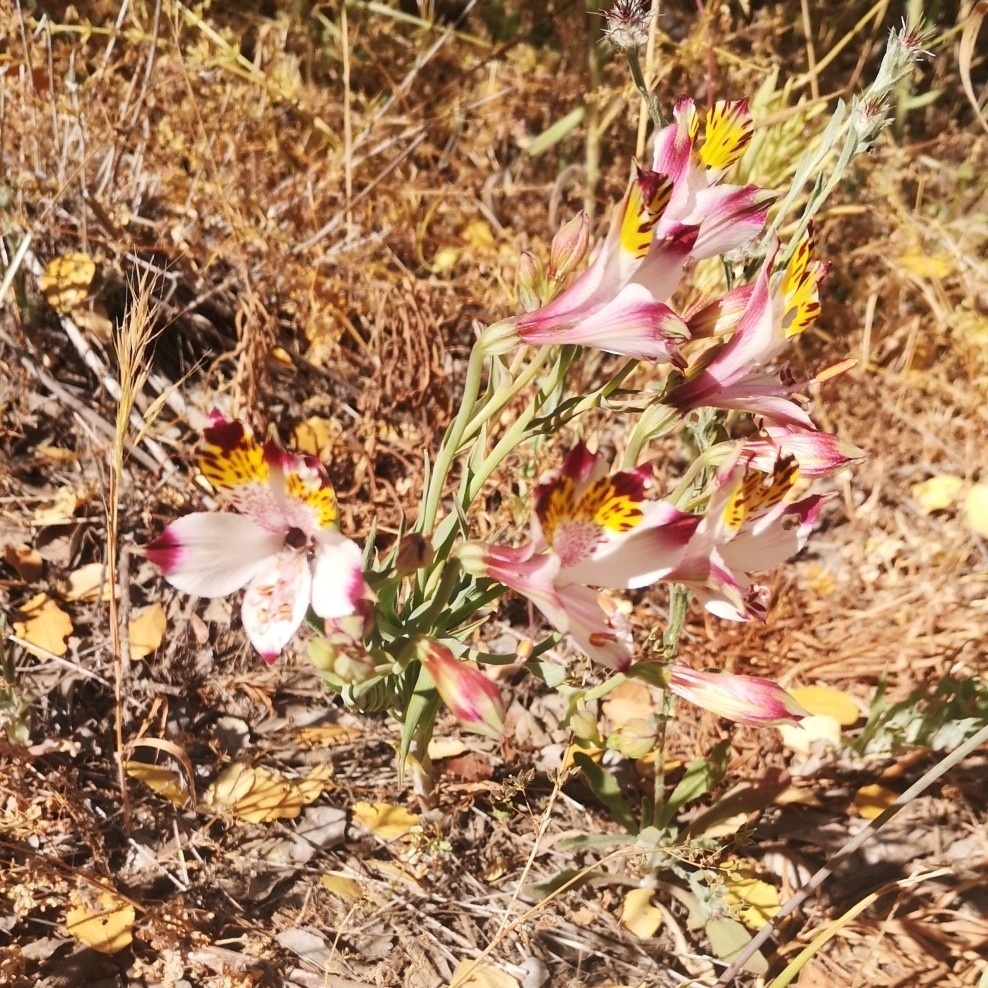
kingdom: Plantae
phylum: Tracheophyta
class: Liliopsida
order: Liliales
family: Alstroemeriaceae
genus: Alstroemeria
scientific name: Alstroemeria pulchra
